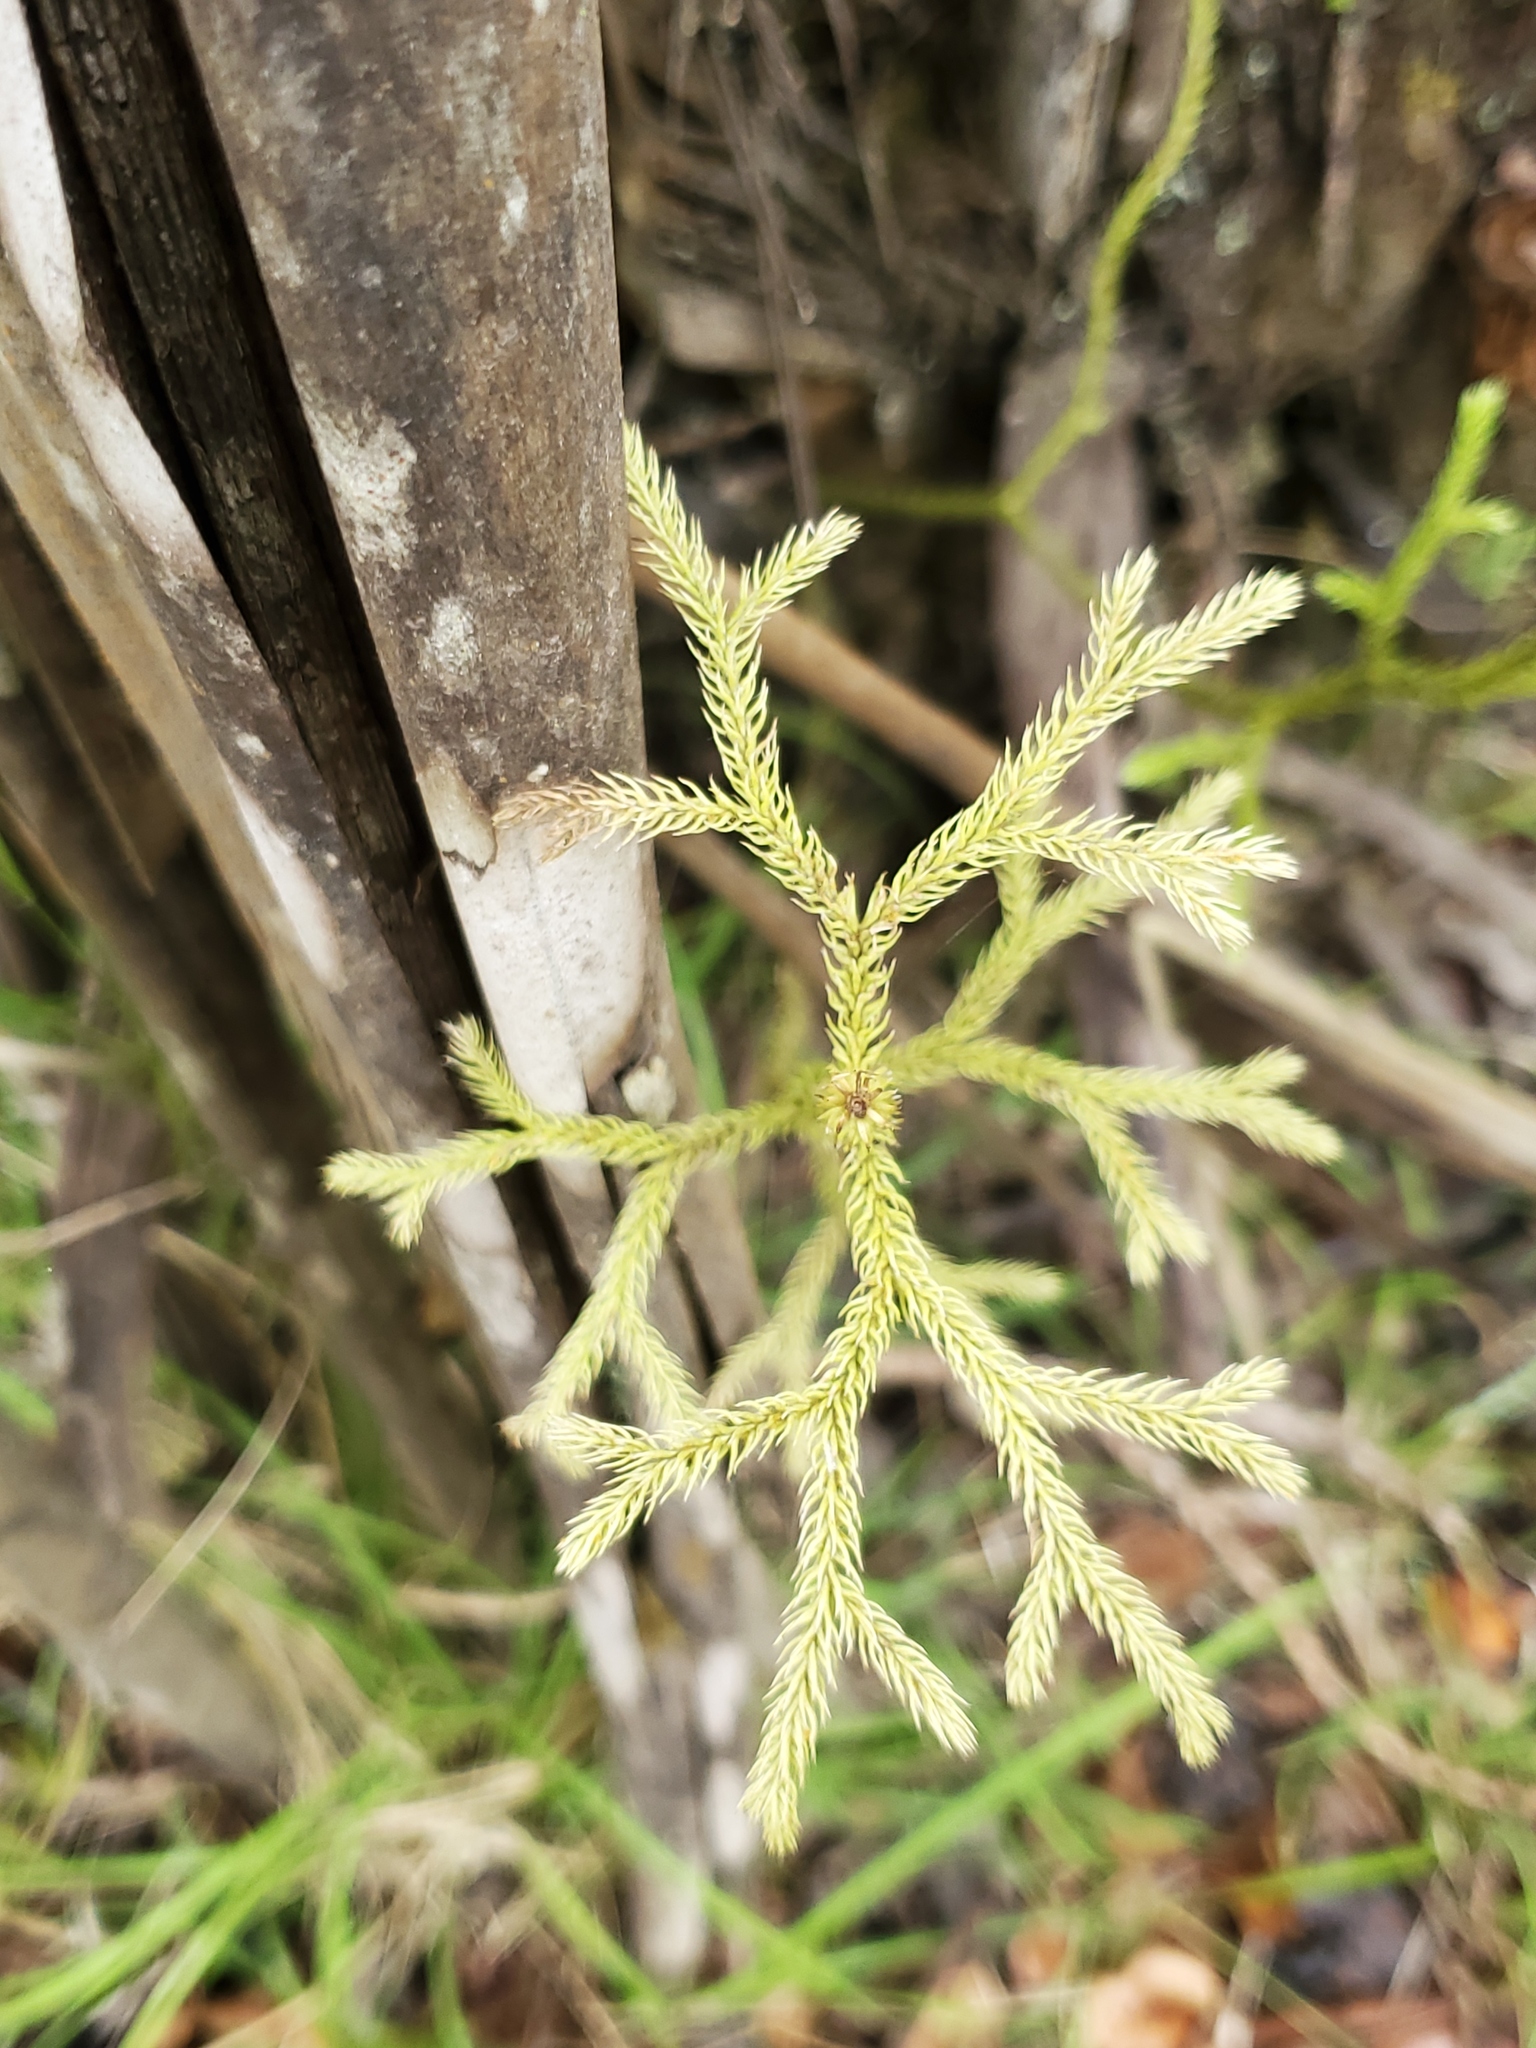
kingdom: Plantae
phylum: Tracheophyta
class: Lycopodiopsida
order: Lycopodiales
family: Lycopodiaceae
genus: Palhinhaea
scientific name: Palhinhaea cernua
